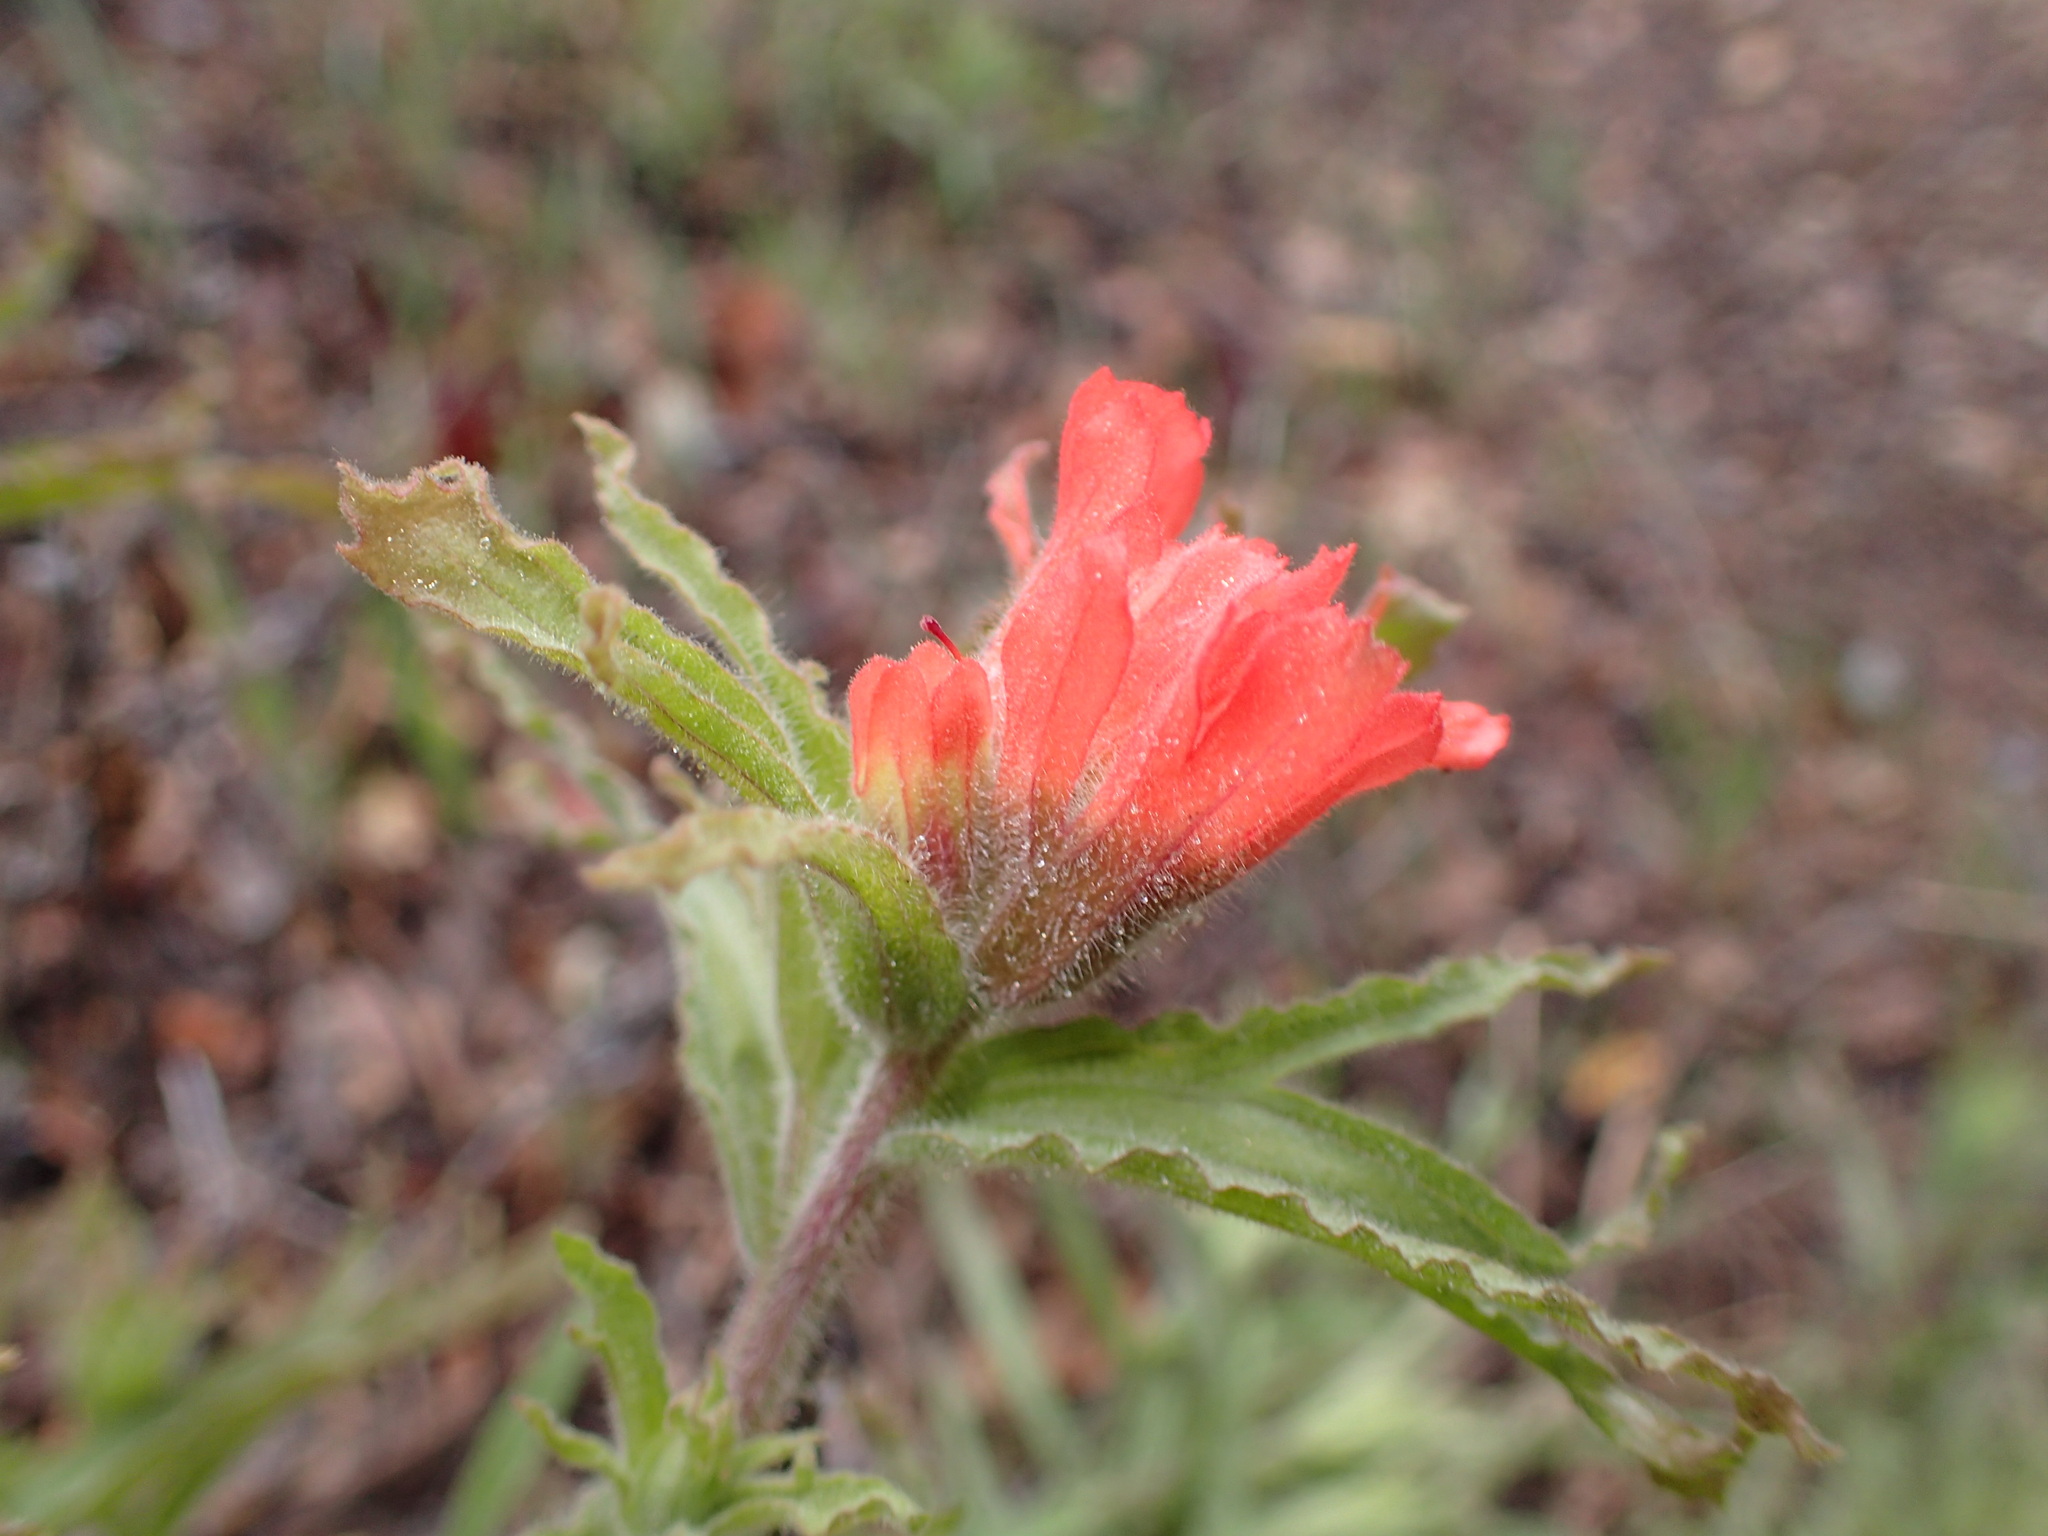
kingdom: Plantae
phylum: Tracheophyta
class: Magnoliopsida
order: Lamiales
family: Orobanchaceae
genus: Castilleja
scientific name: Castilleja martini
